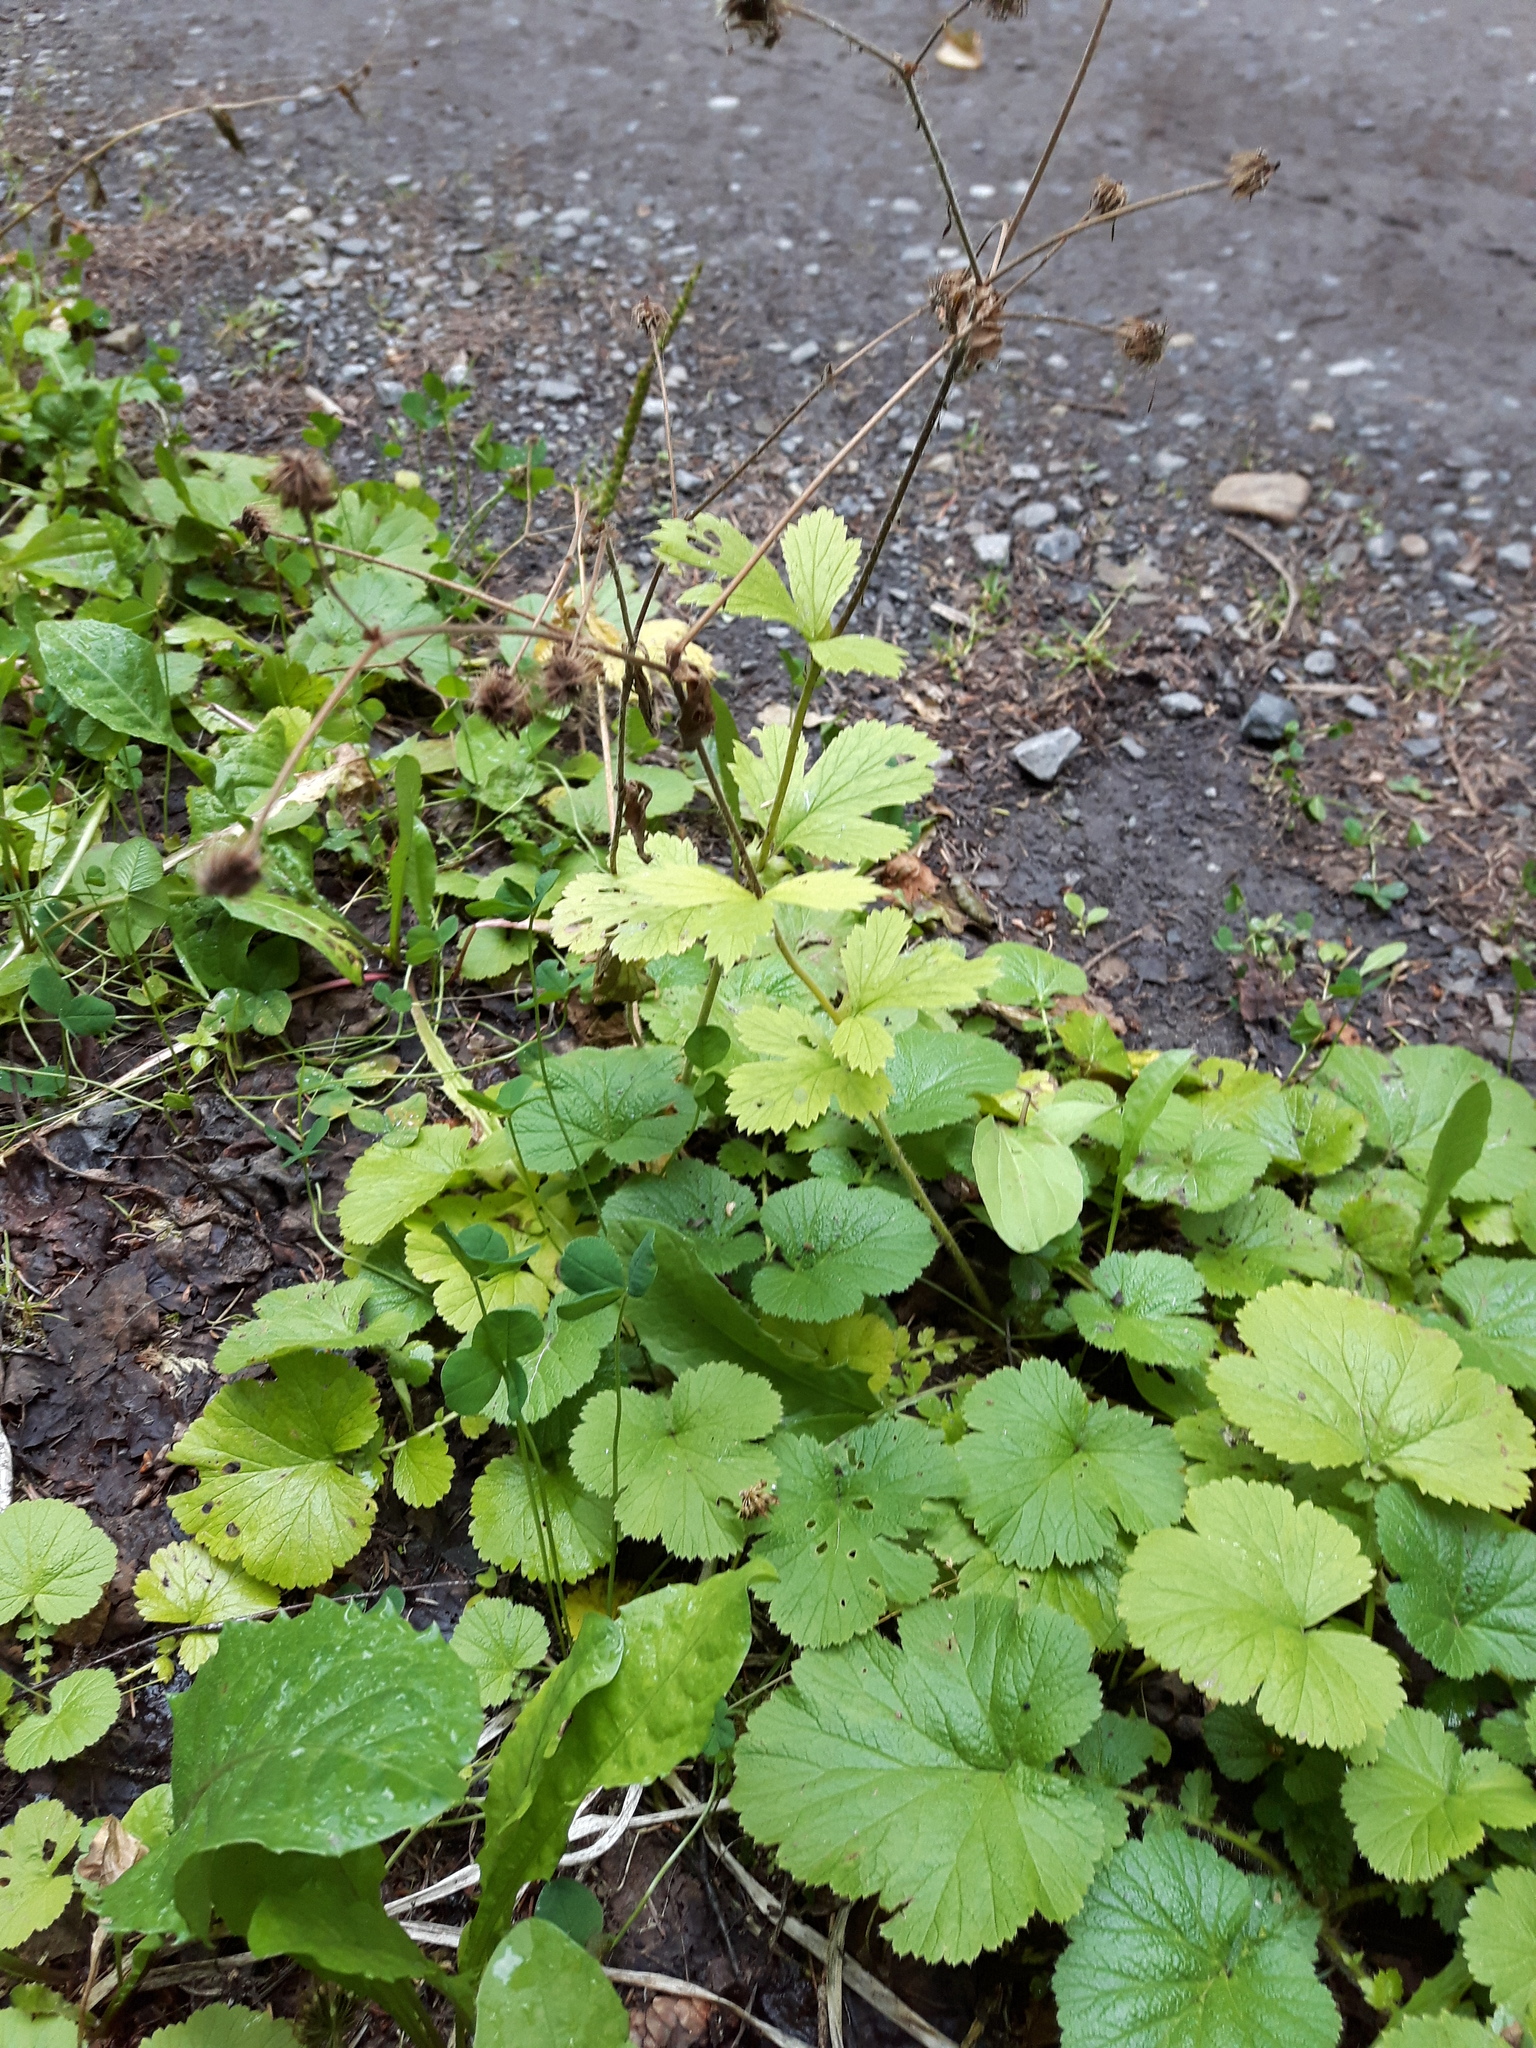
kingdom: Plantae
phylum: Tracheophyta
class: Magnoliopsida
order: Rosales
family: Rosaceae
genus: Geum
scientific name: Geum macrophyllum
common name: Large-leaved avens
